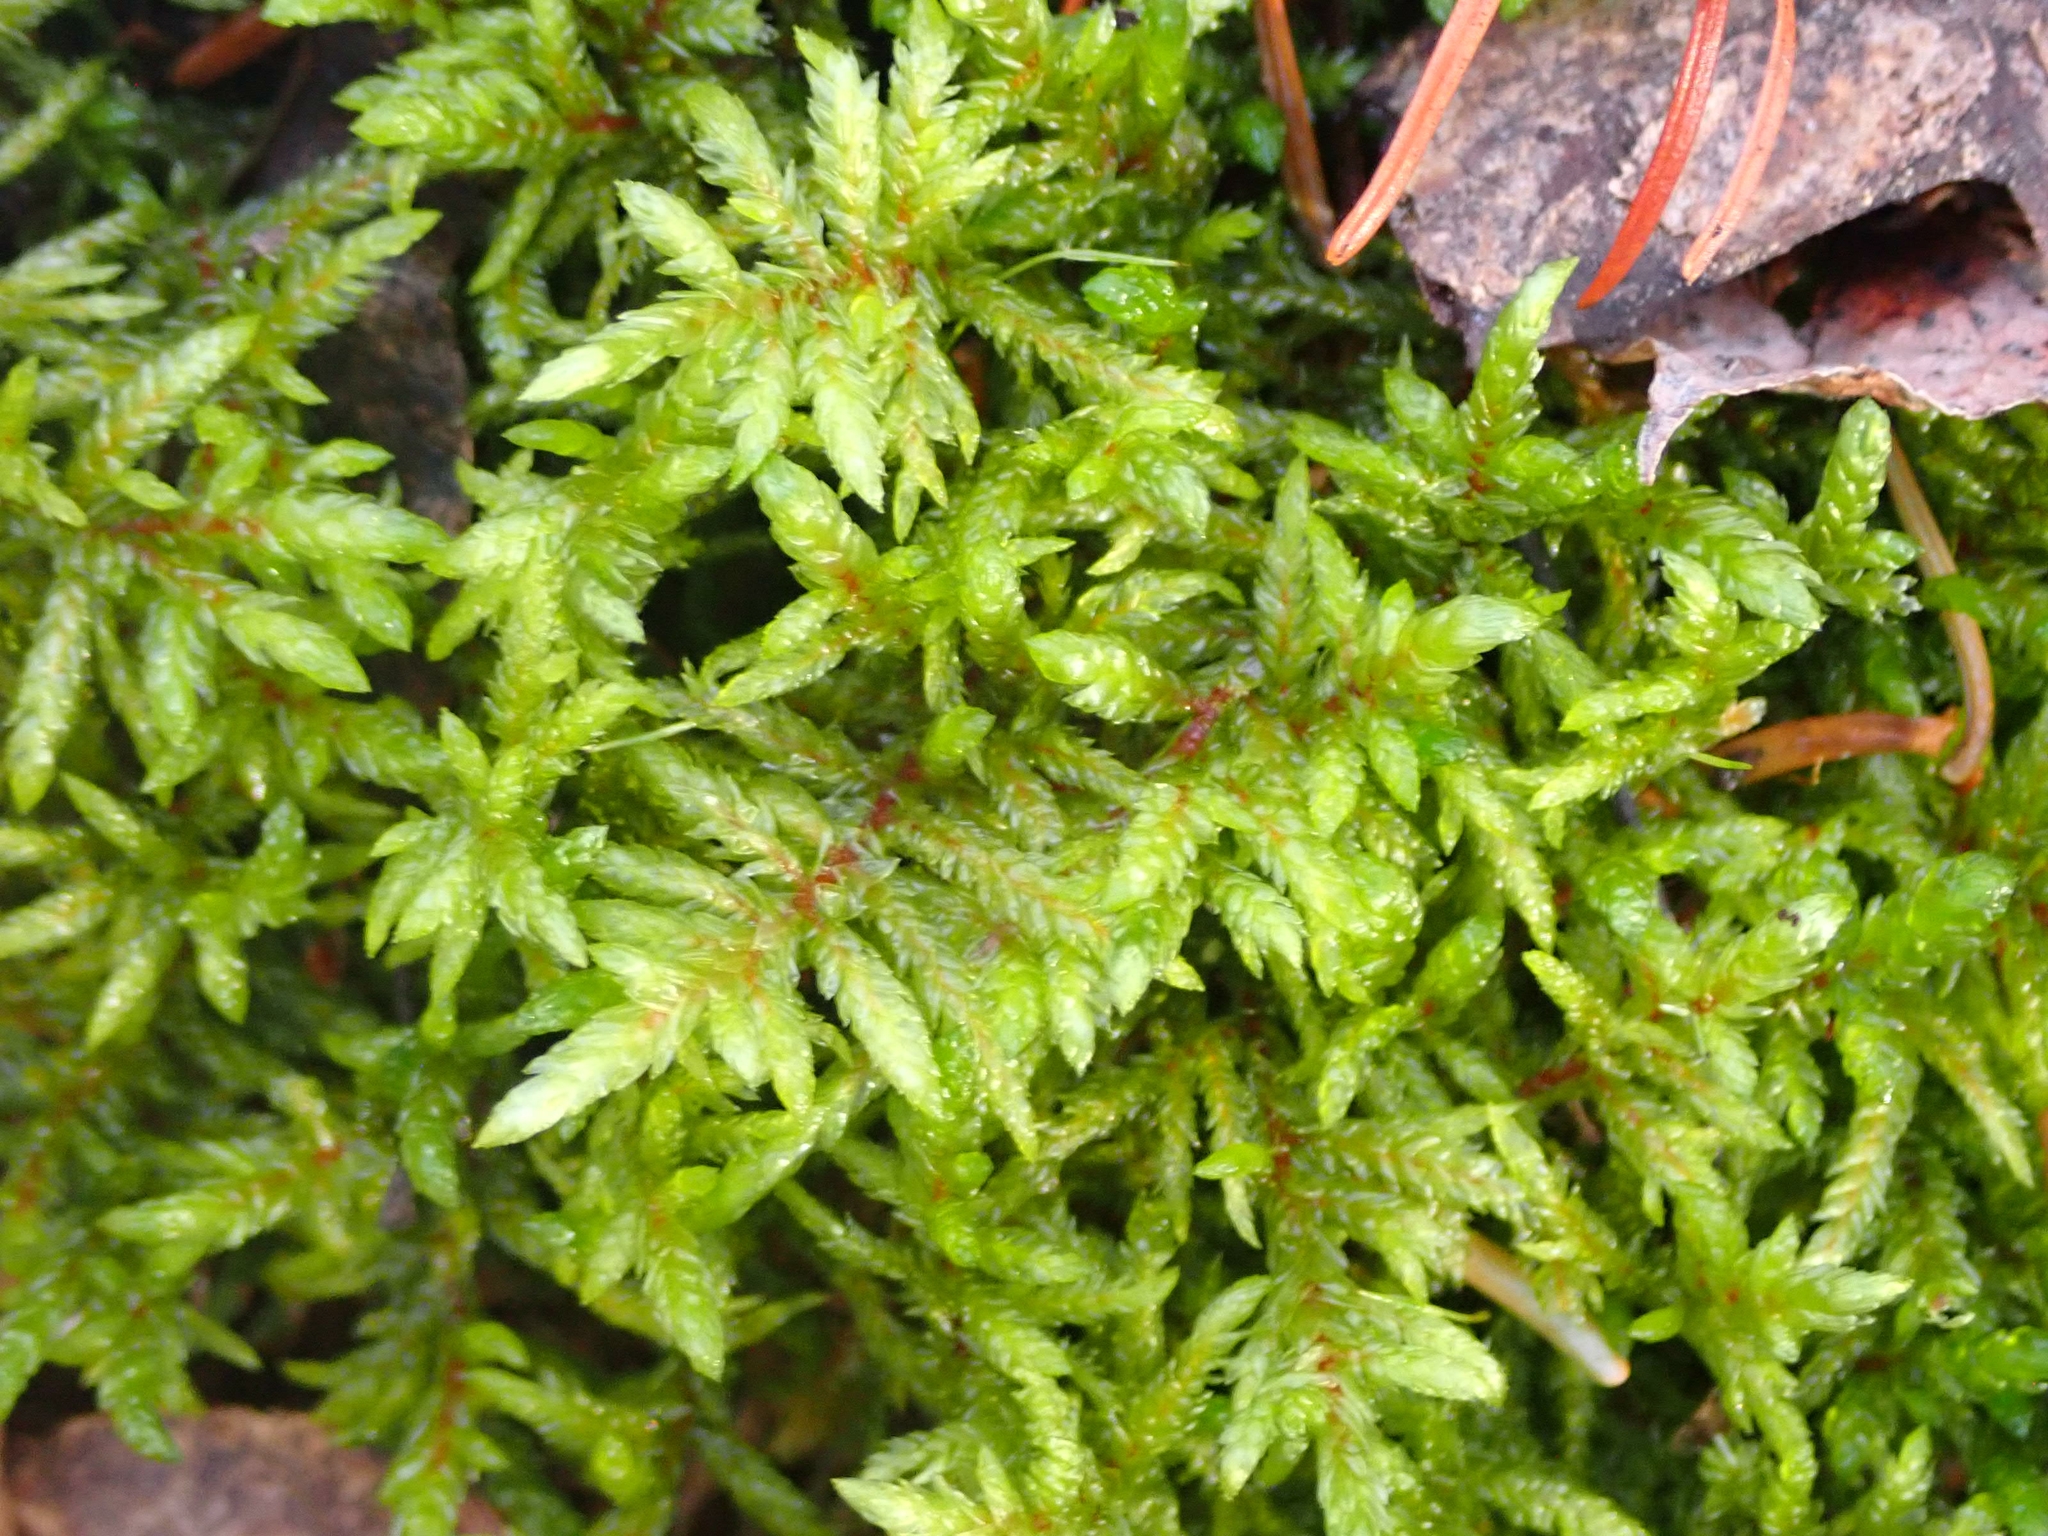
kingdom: Plantae
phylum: Bryophyta
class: Bryopsida
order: Hypnales
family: Hylocomiaceae
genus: Pleurozium
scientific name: Pleurozium schreberi
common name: Red-stemmed feather moss
